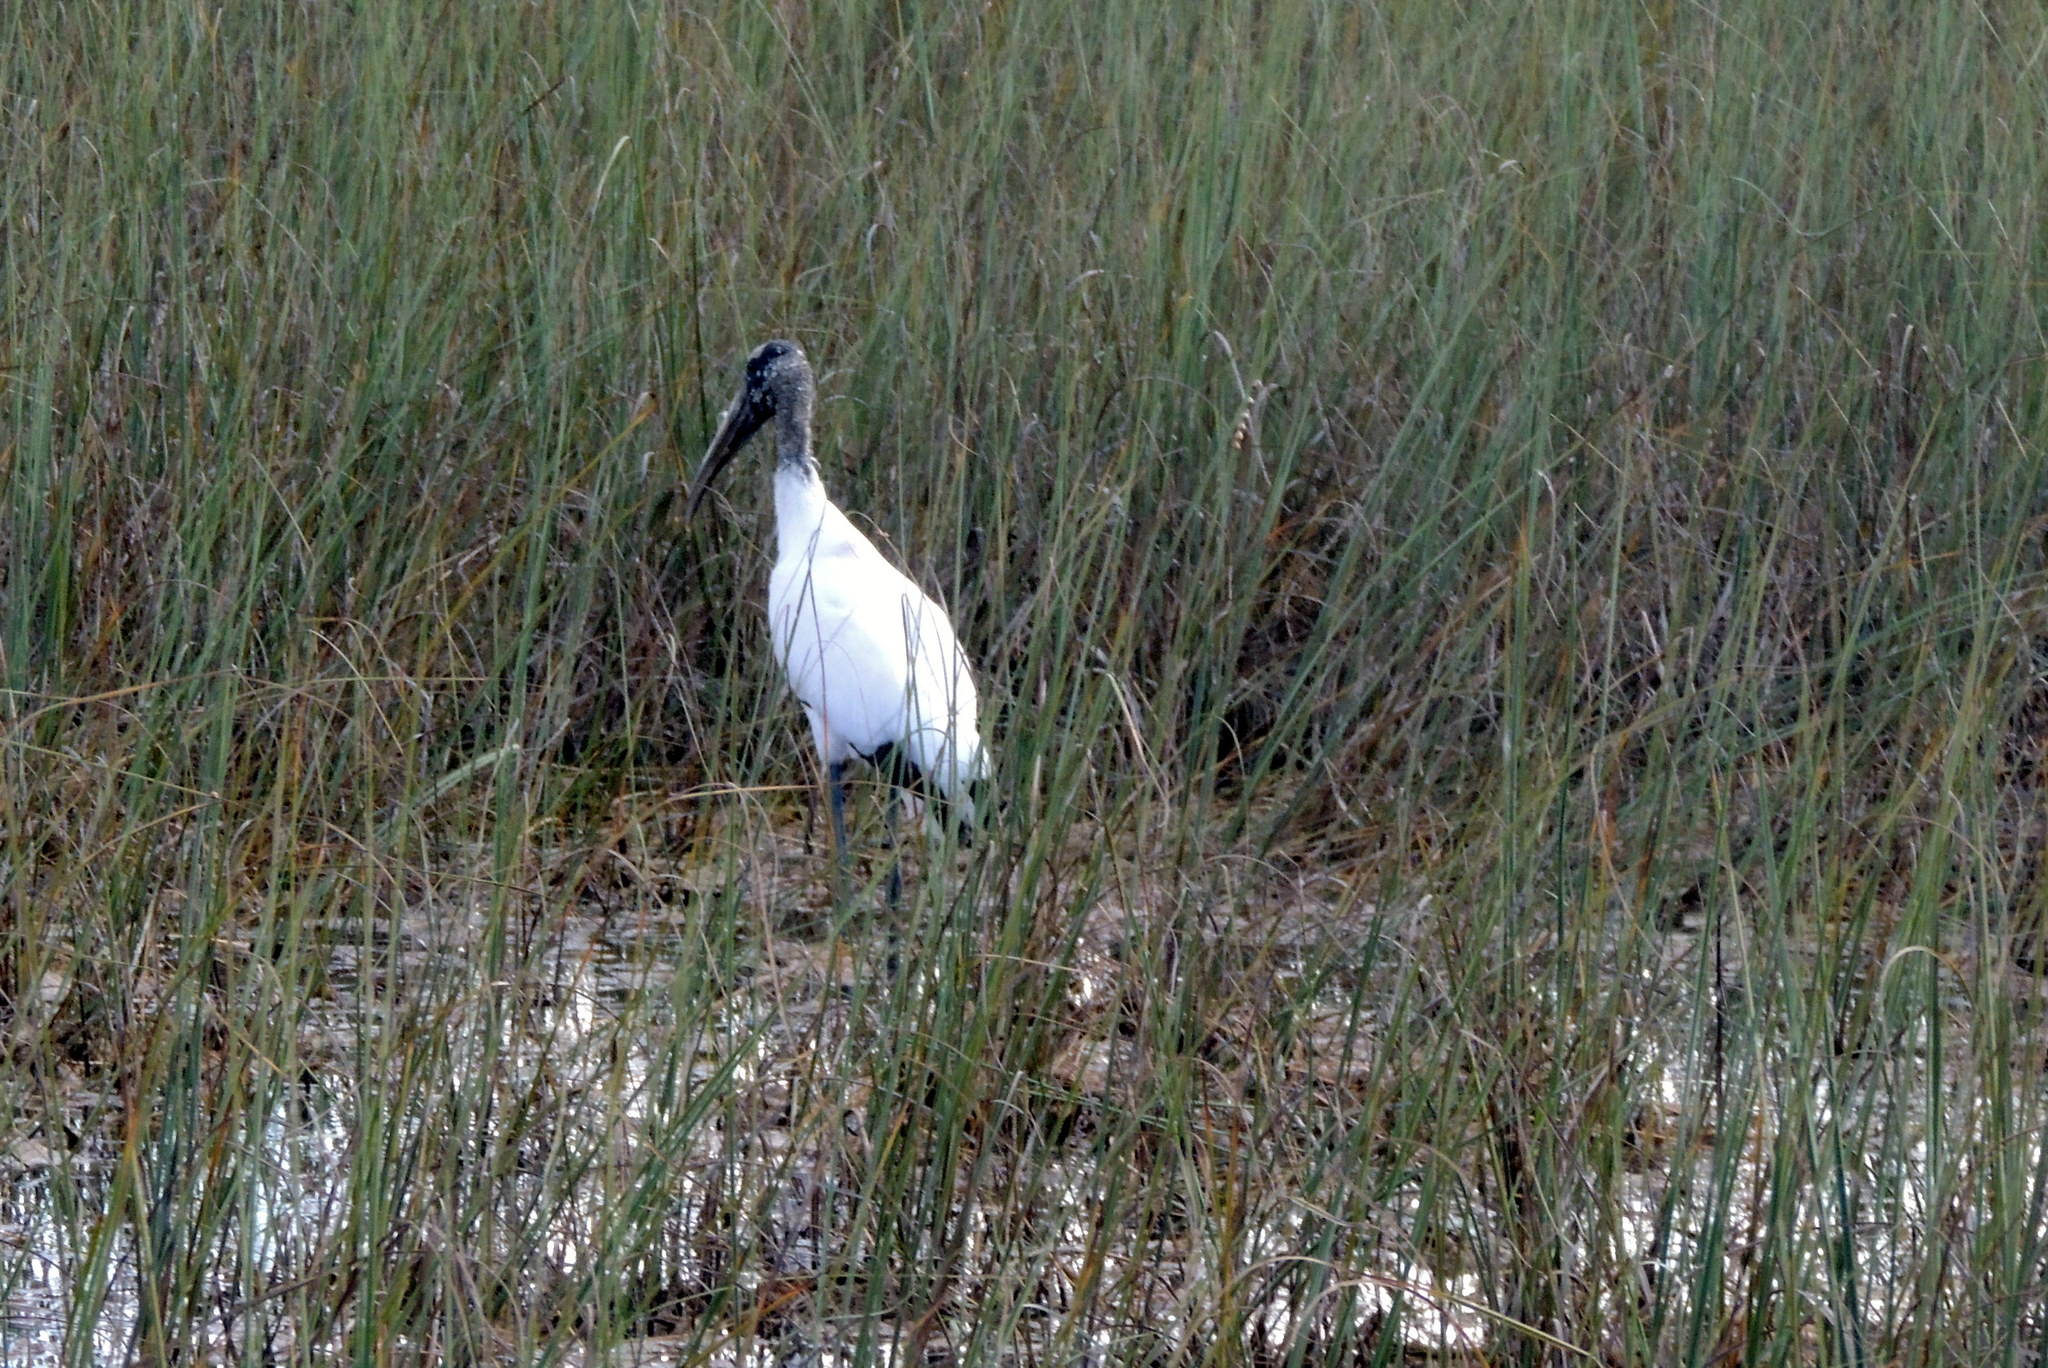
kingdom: Animalia
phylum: Chordata
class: Aves
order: Ciconiiformes
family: Ciconiidae
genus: Mycteria
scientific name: Mycteria americana
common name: Wood stork
